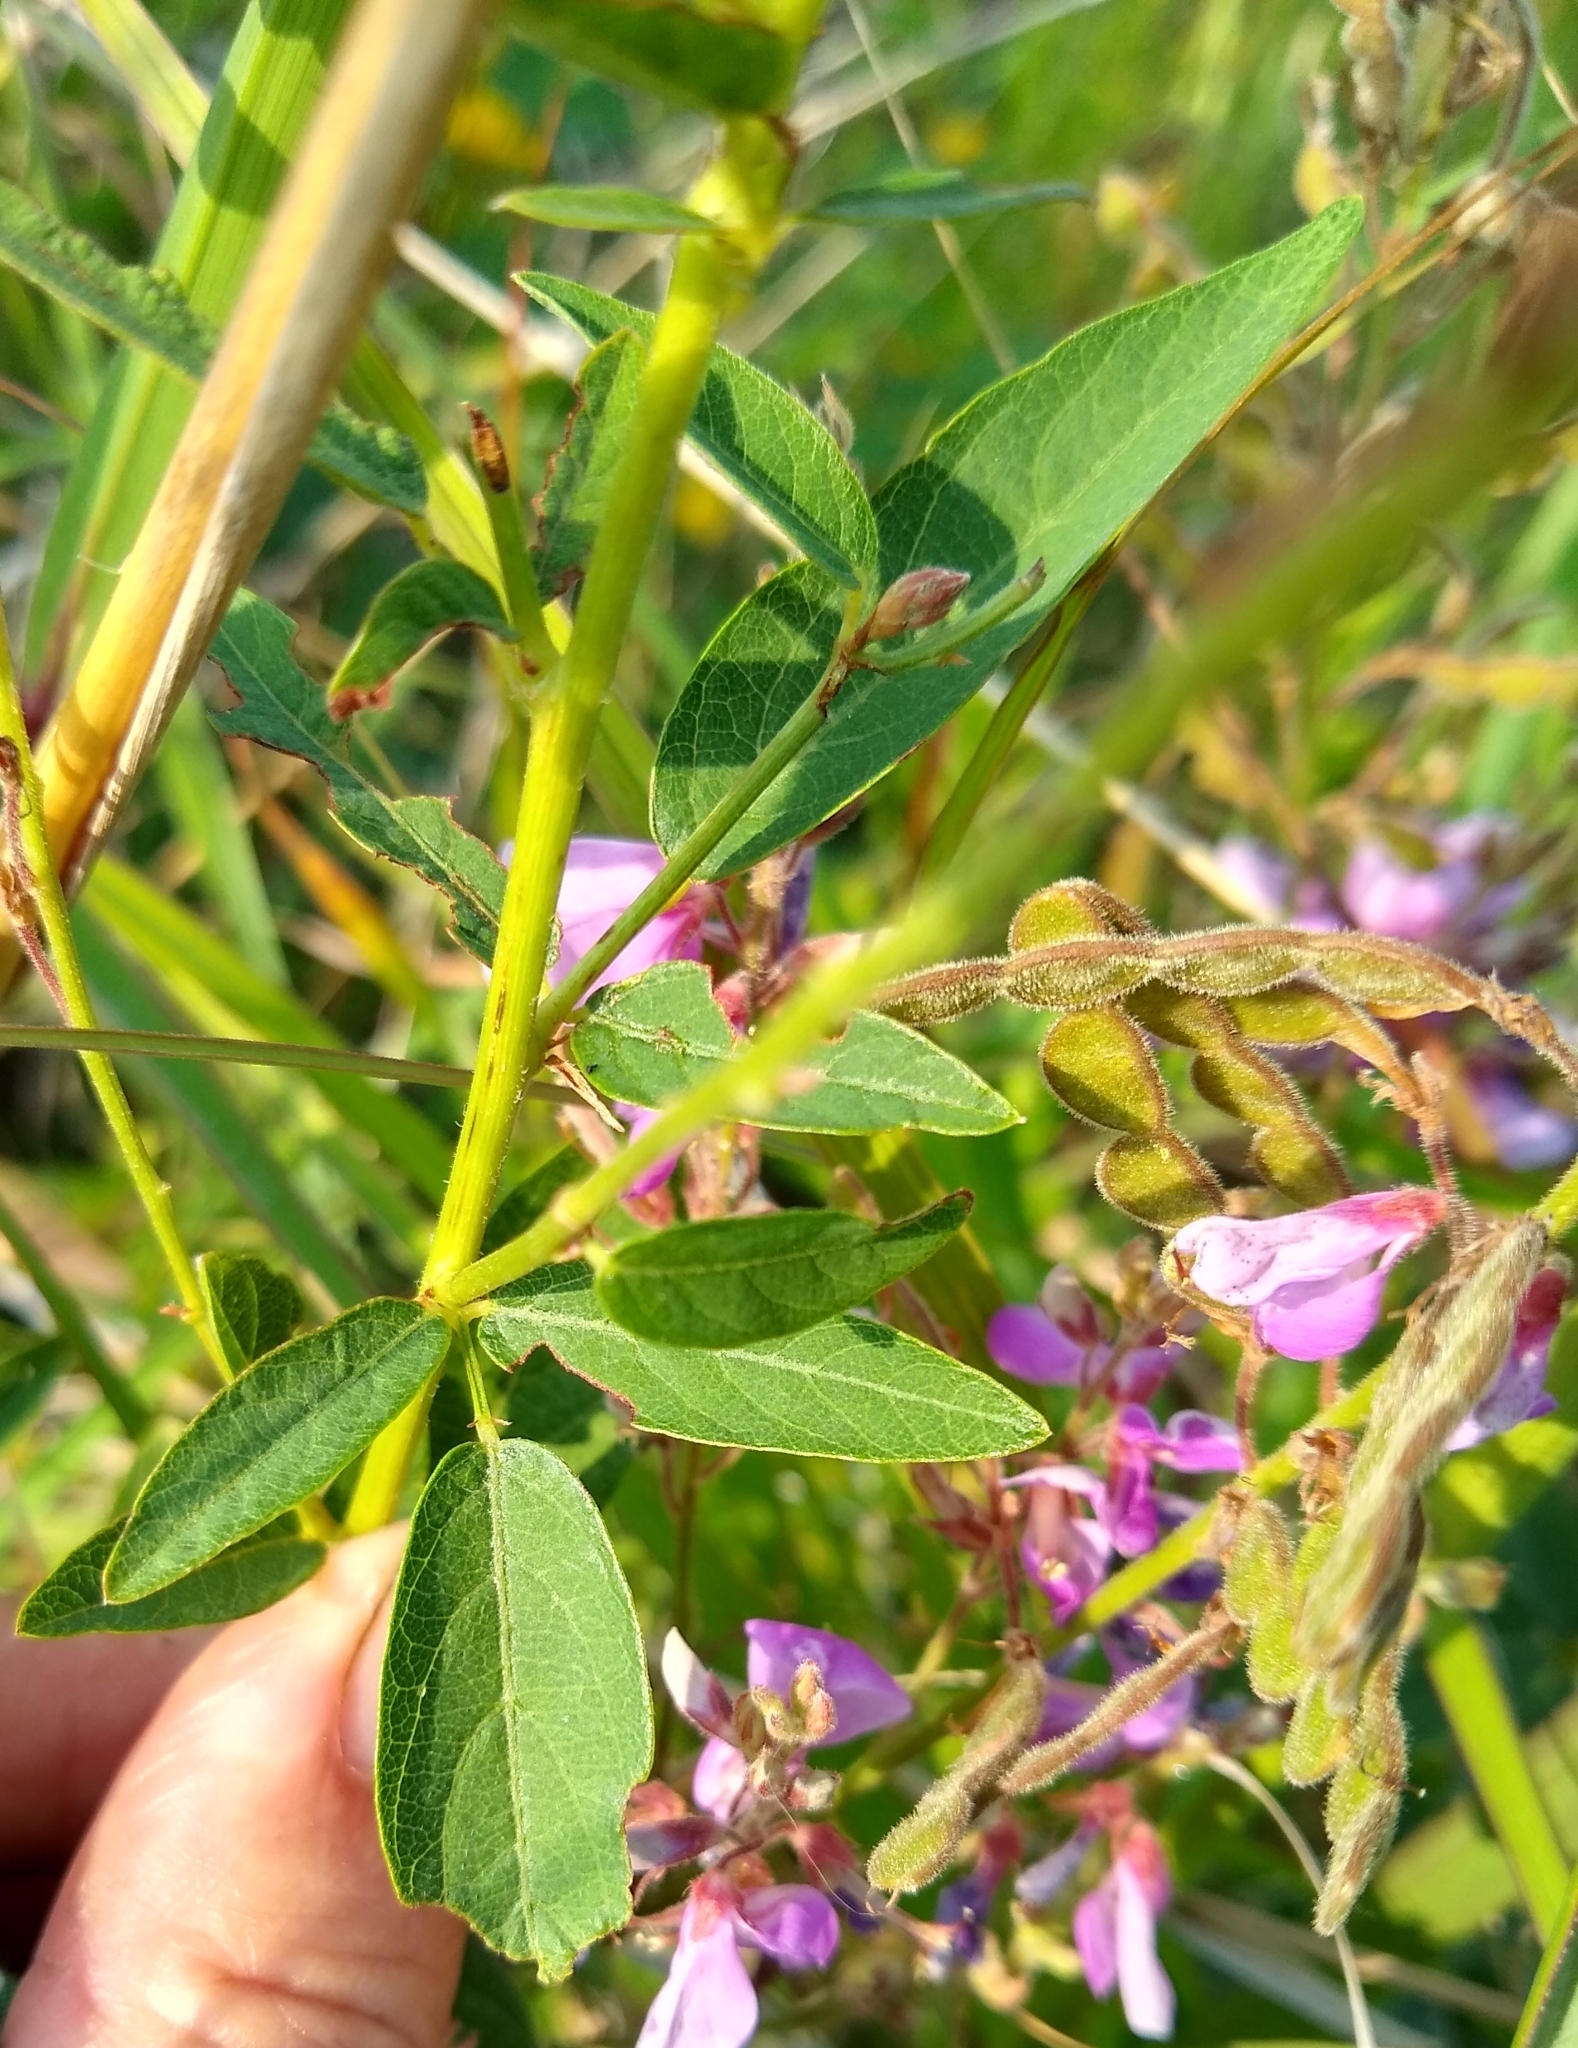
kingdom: Plantae
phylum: Tracheophyta
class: Magnoliopsida
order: Fabales
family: Fabaceae
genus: Desmodium
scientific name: Desmodium canadense
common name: Canada tick-trefoil
